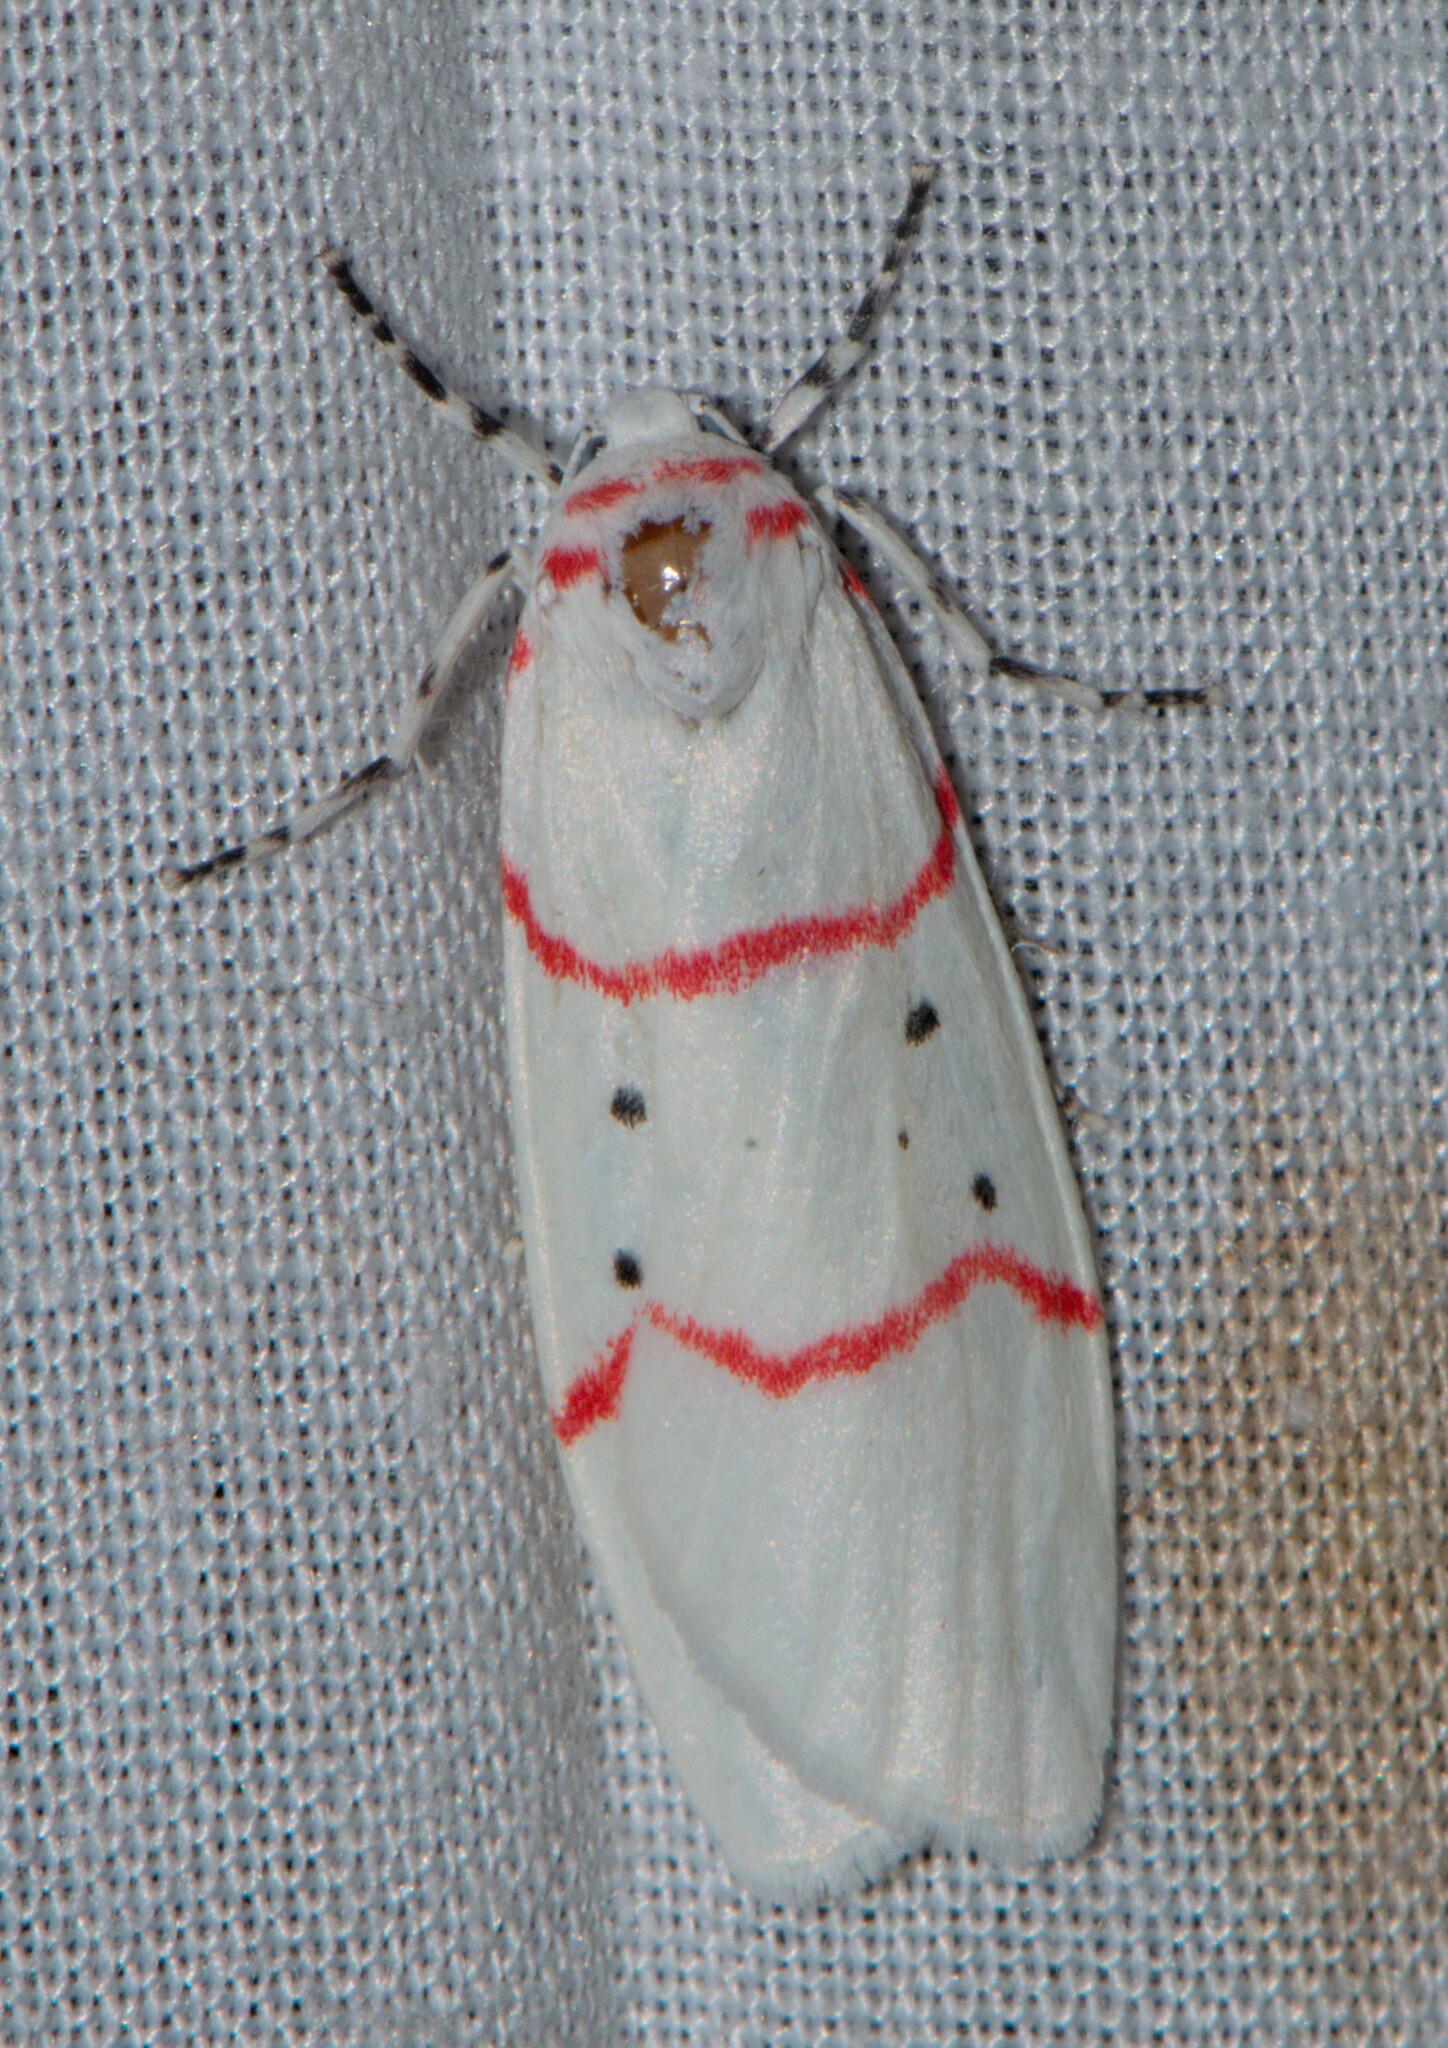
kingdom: Animalia
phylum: Arthropoda
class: Insecta
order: Lepidoptera
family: Erebidae
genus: Cyana
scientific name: Cyana adita
